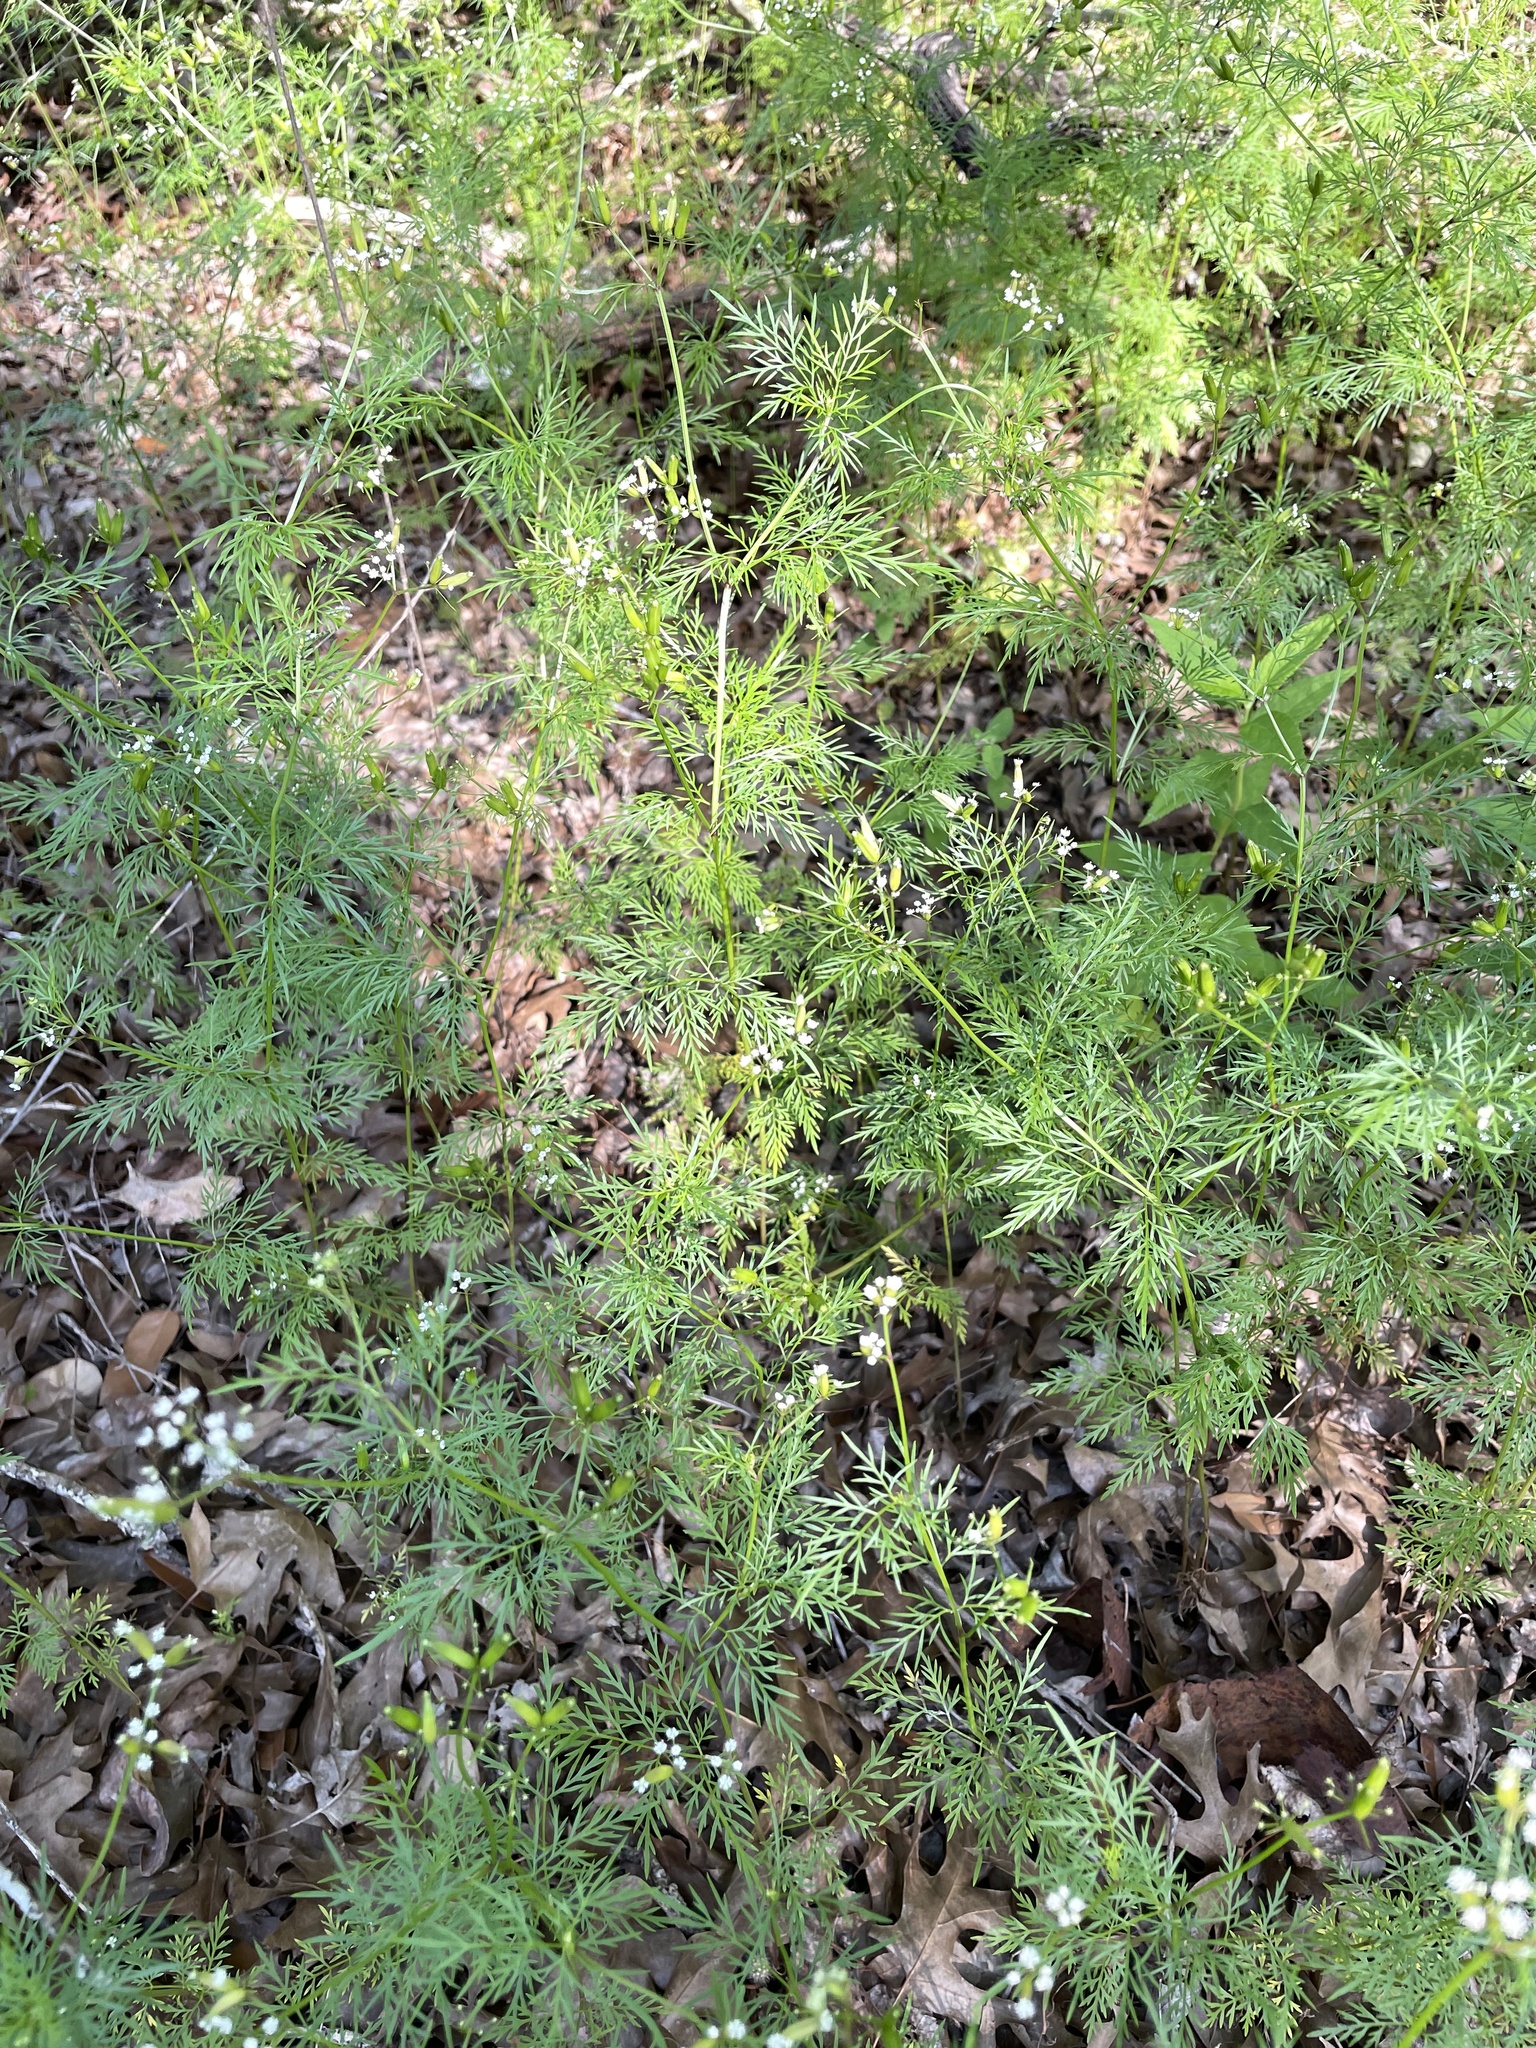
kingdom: Plantae
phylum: Tracheophyta
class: Magnoliopsida
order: Apiales
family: Apiaceae
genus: Trepocarpus
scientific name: Trepocarpus aethusae
